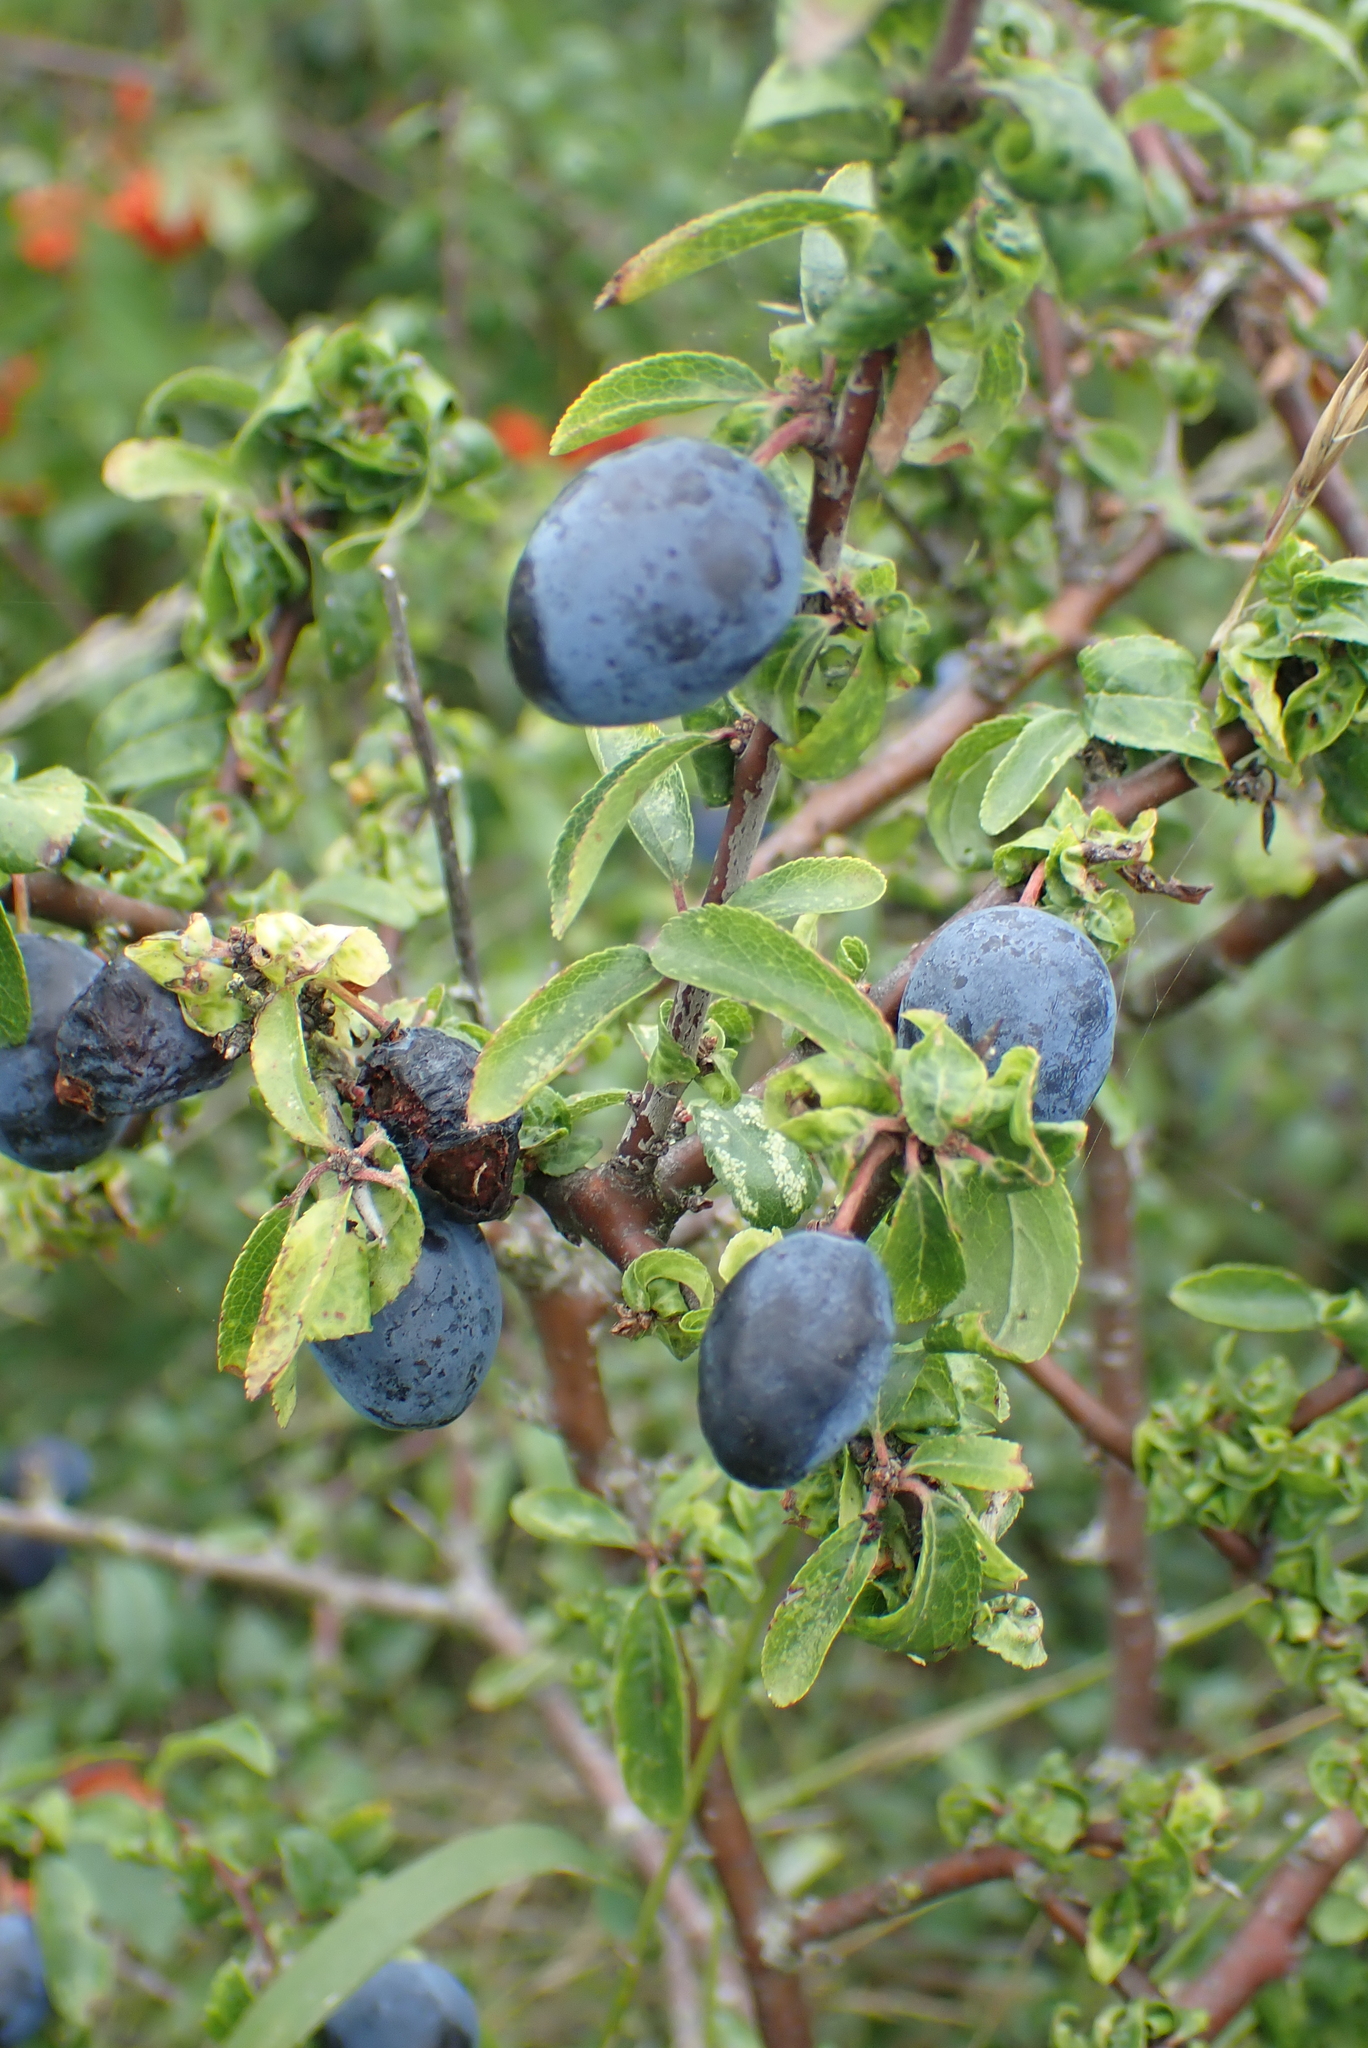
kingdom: Plantae
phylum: Tracheophyta
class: Magnoliopsida
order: Rosales
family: Rosaceae
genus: Prunus
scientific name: Prunus spinosa
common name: Blackthorn
